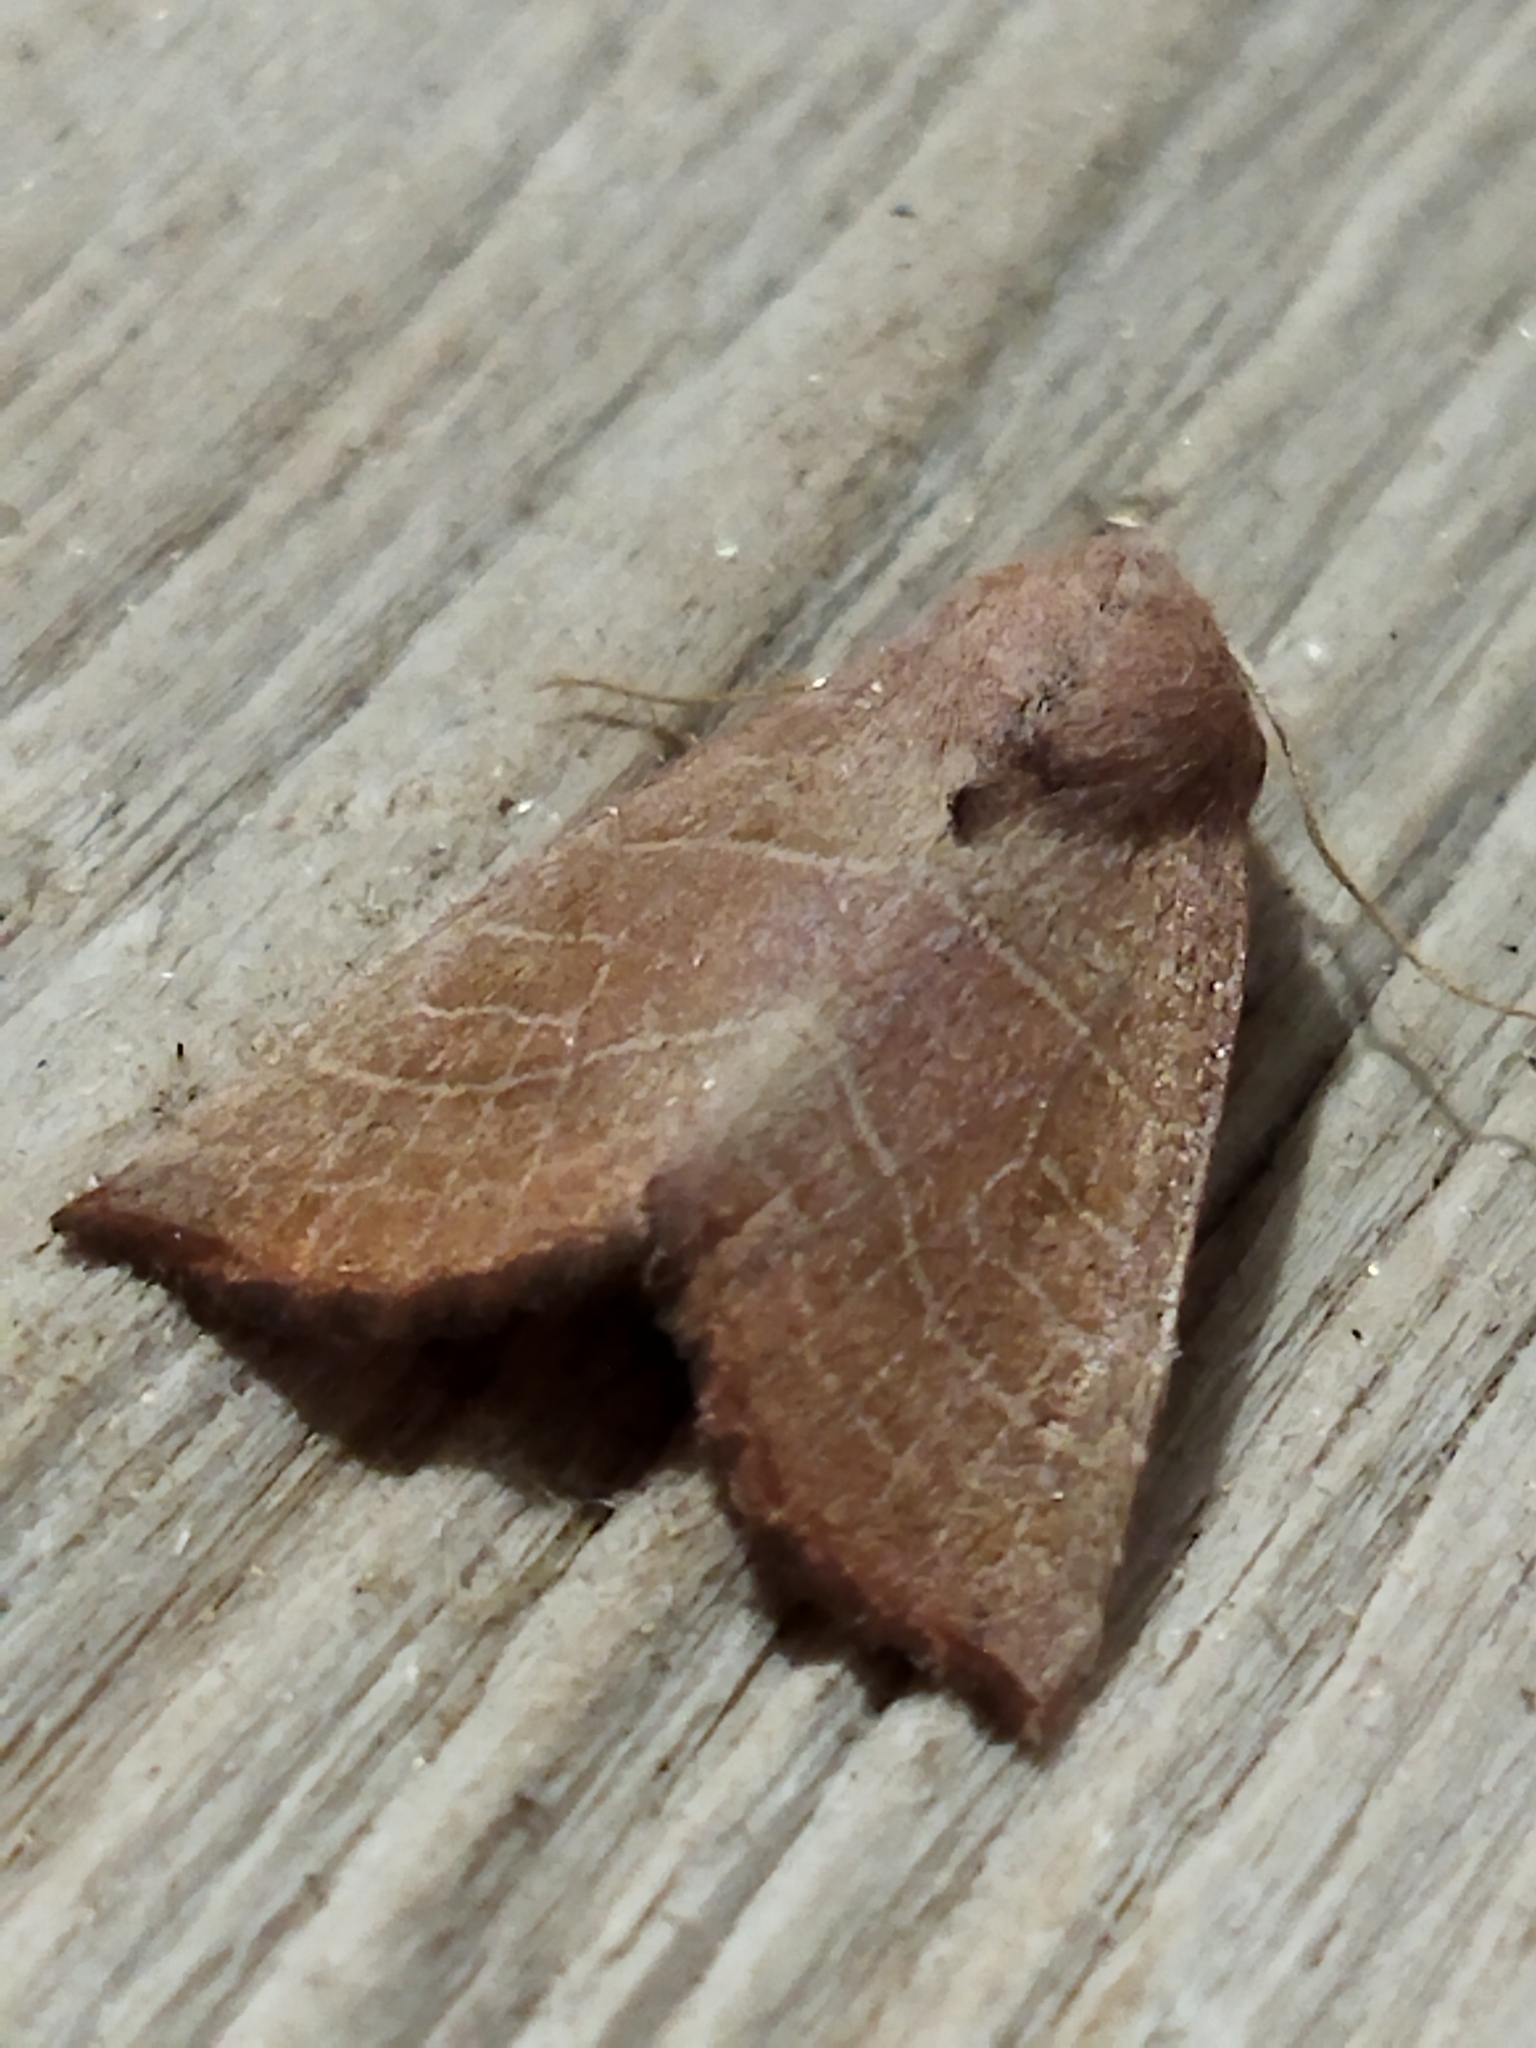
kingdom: Animalia
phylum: Arthropoda
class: Insecta
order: Lepidoptera
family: Noctuidae
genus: Atethmia
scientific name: Atethmia ambusta
